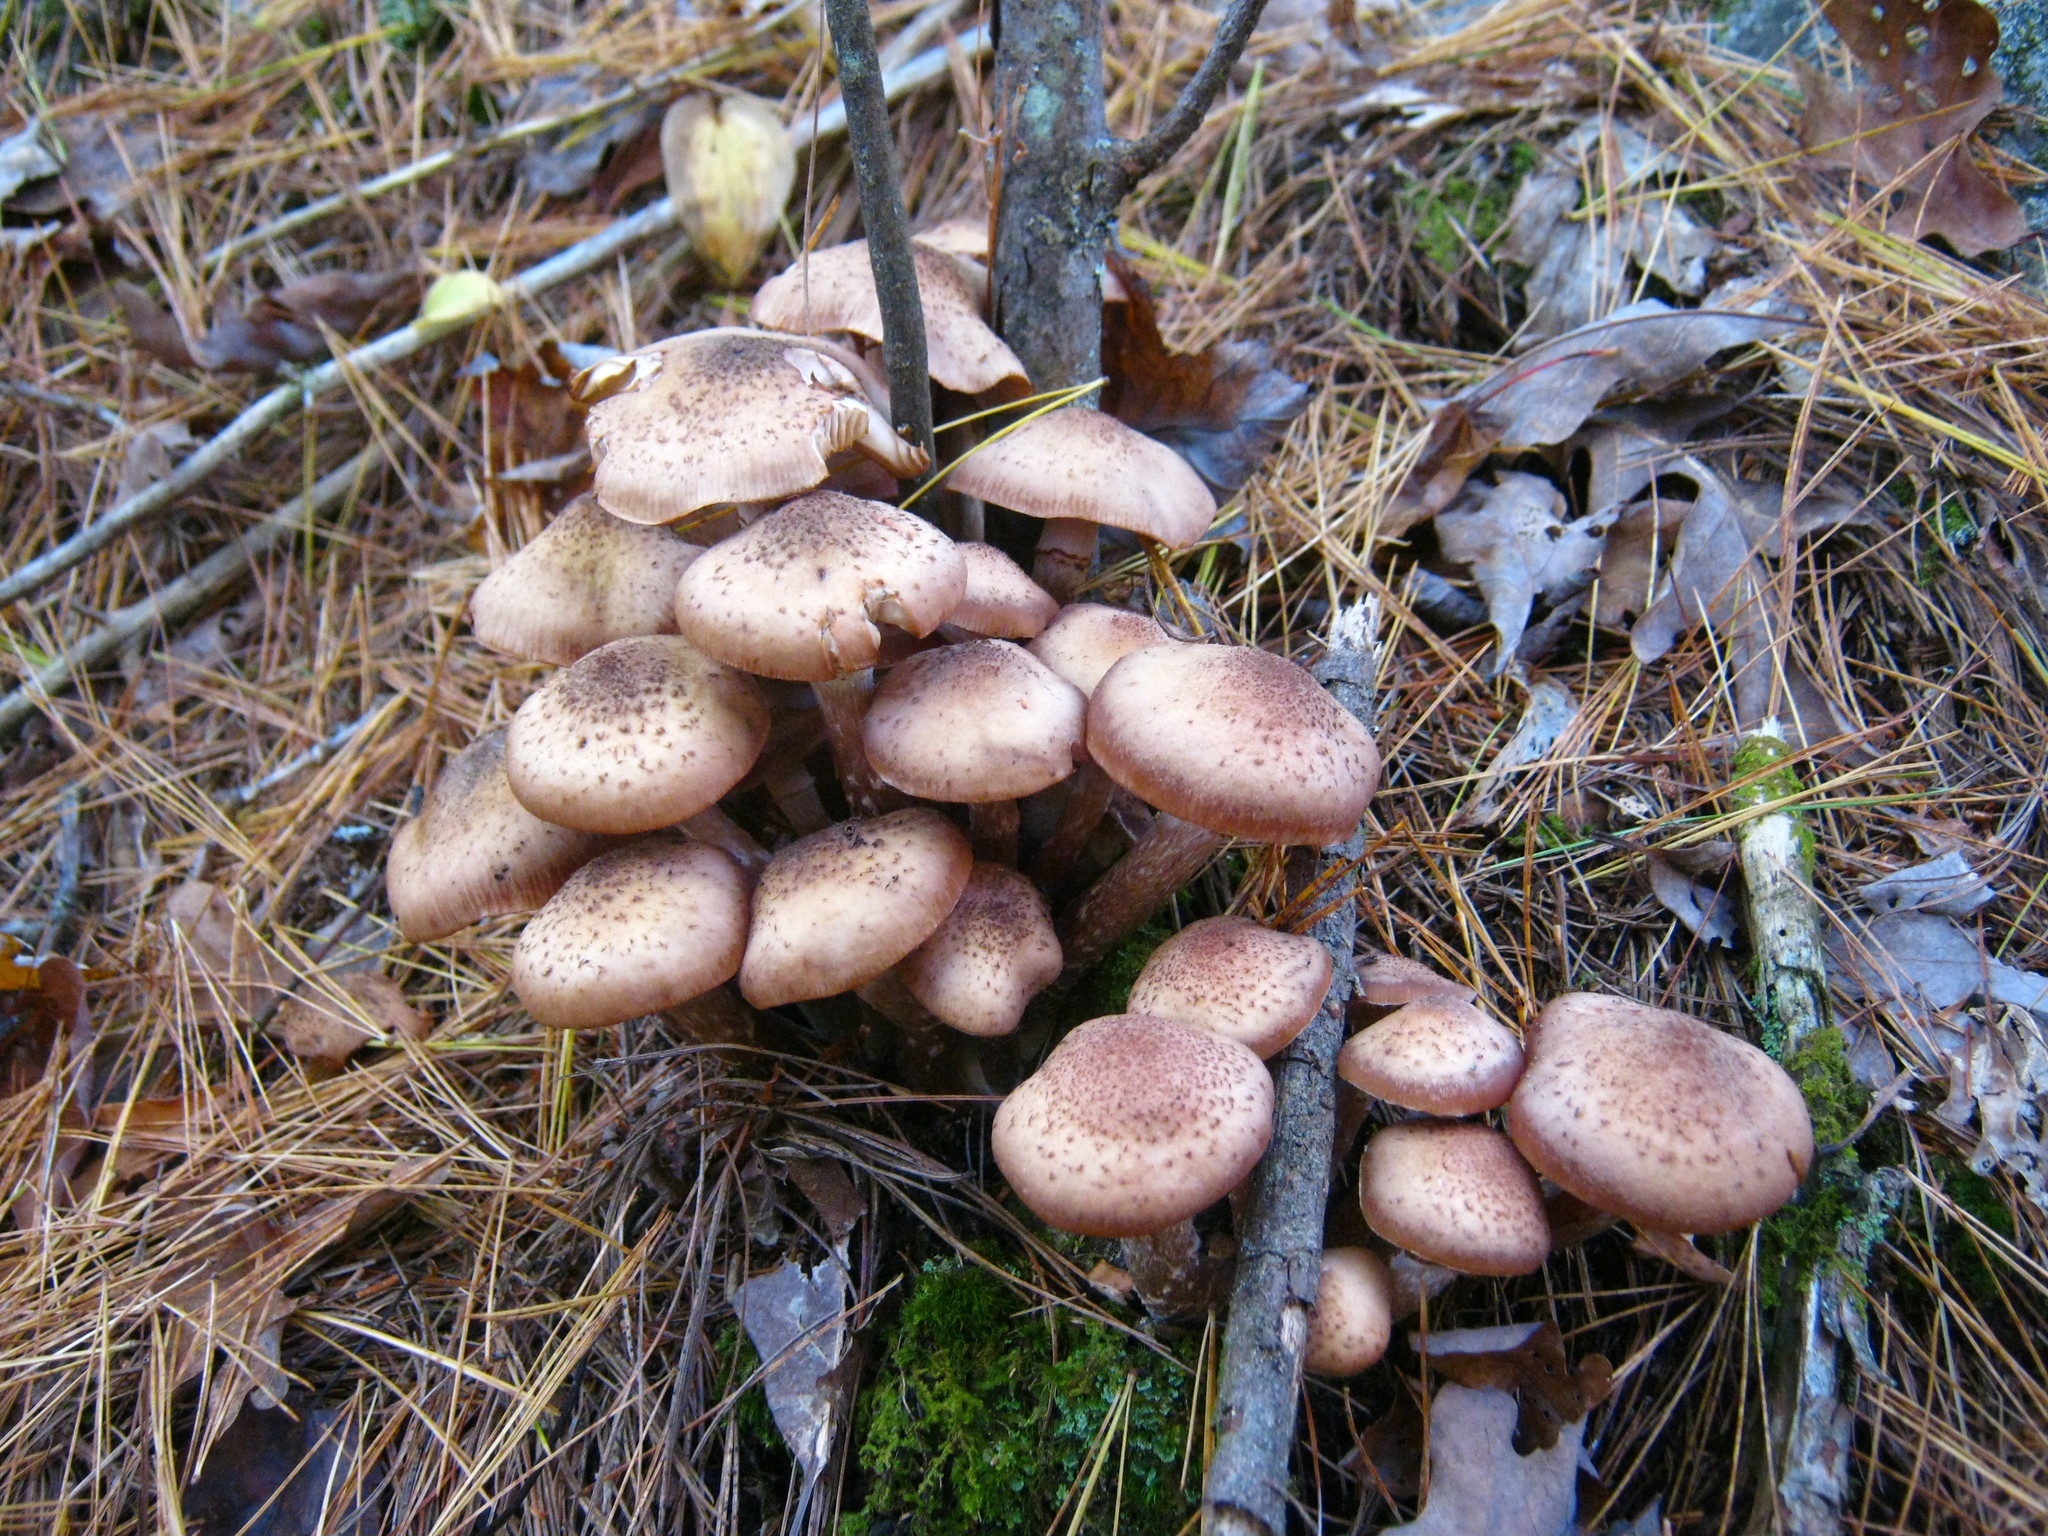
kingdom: Fungi
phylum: Basidiomycota
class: Agaricomycetes
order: Agaricales
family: Physalacriaceae
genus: Armillaria
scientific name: Armillaria ostoyae
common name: Dark honey fungus
